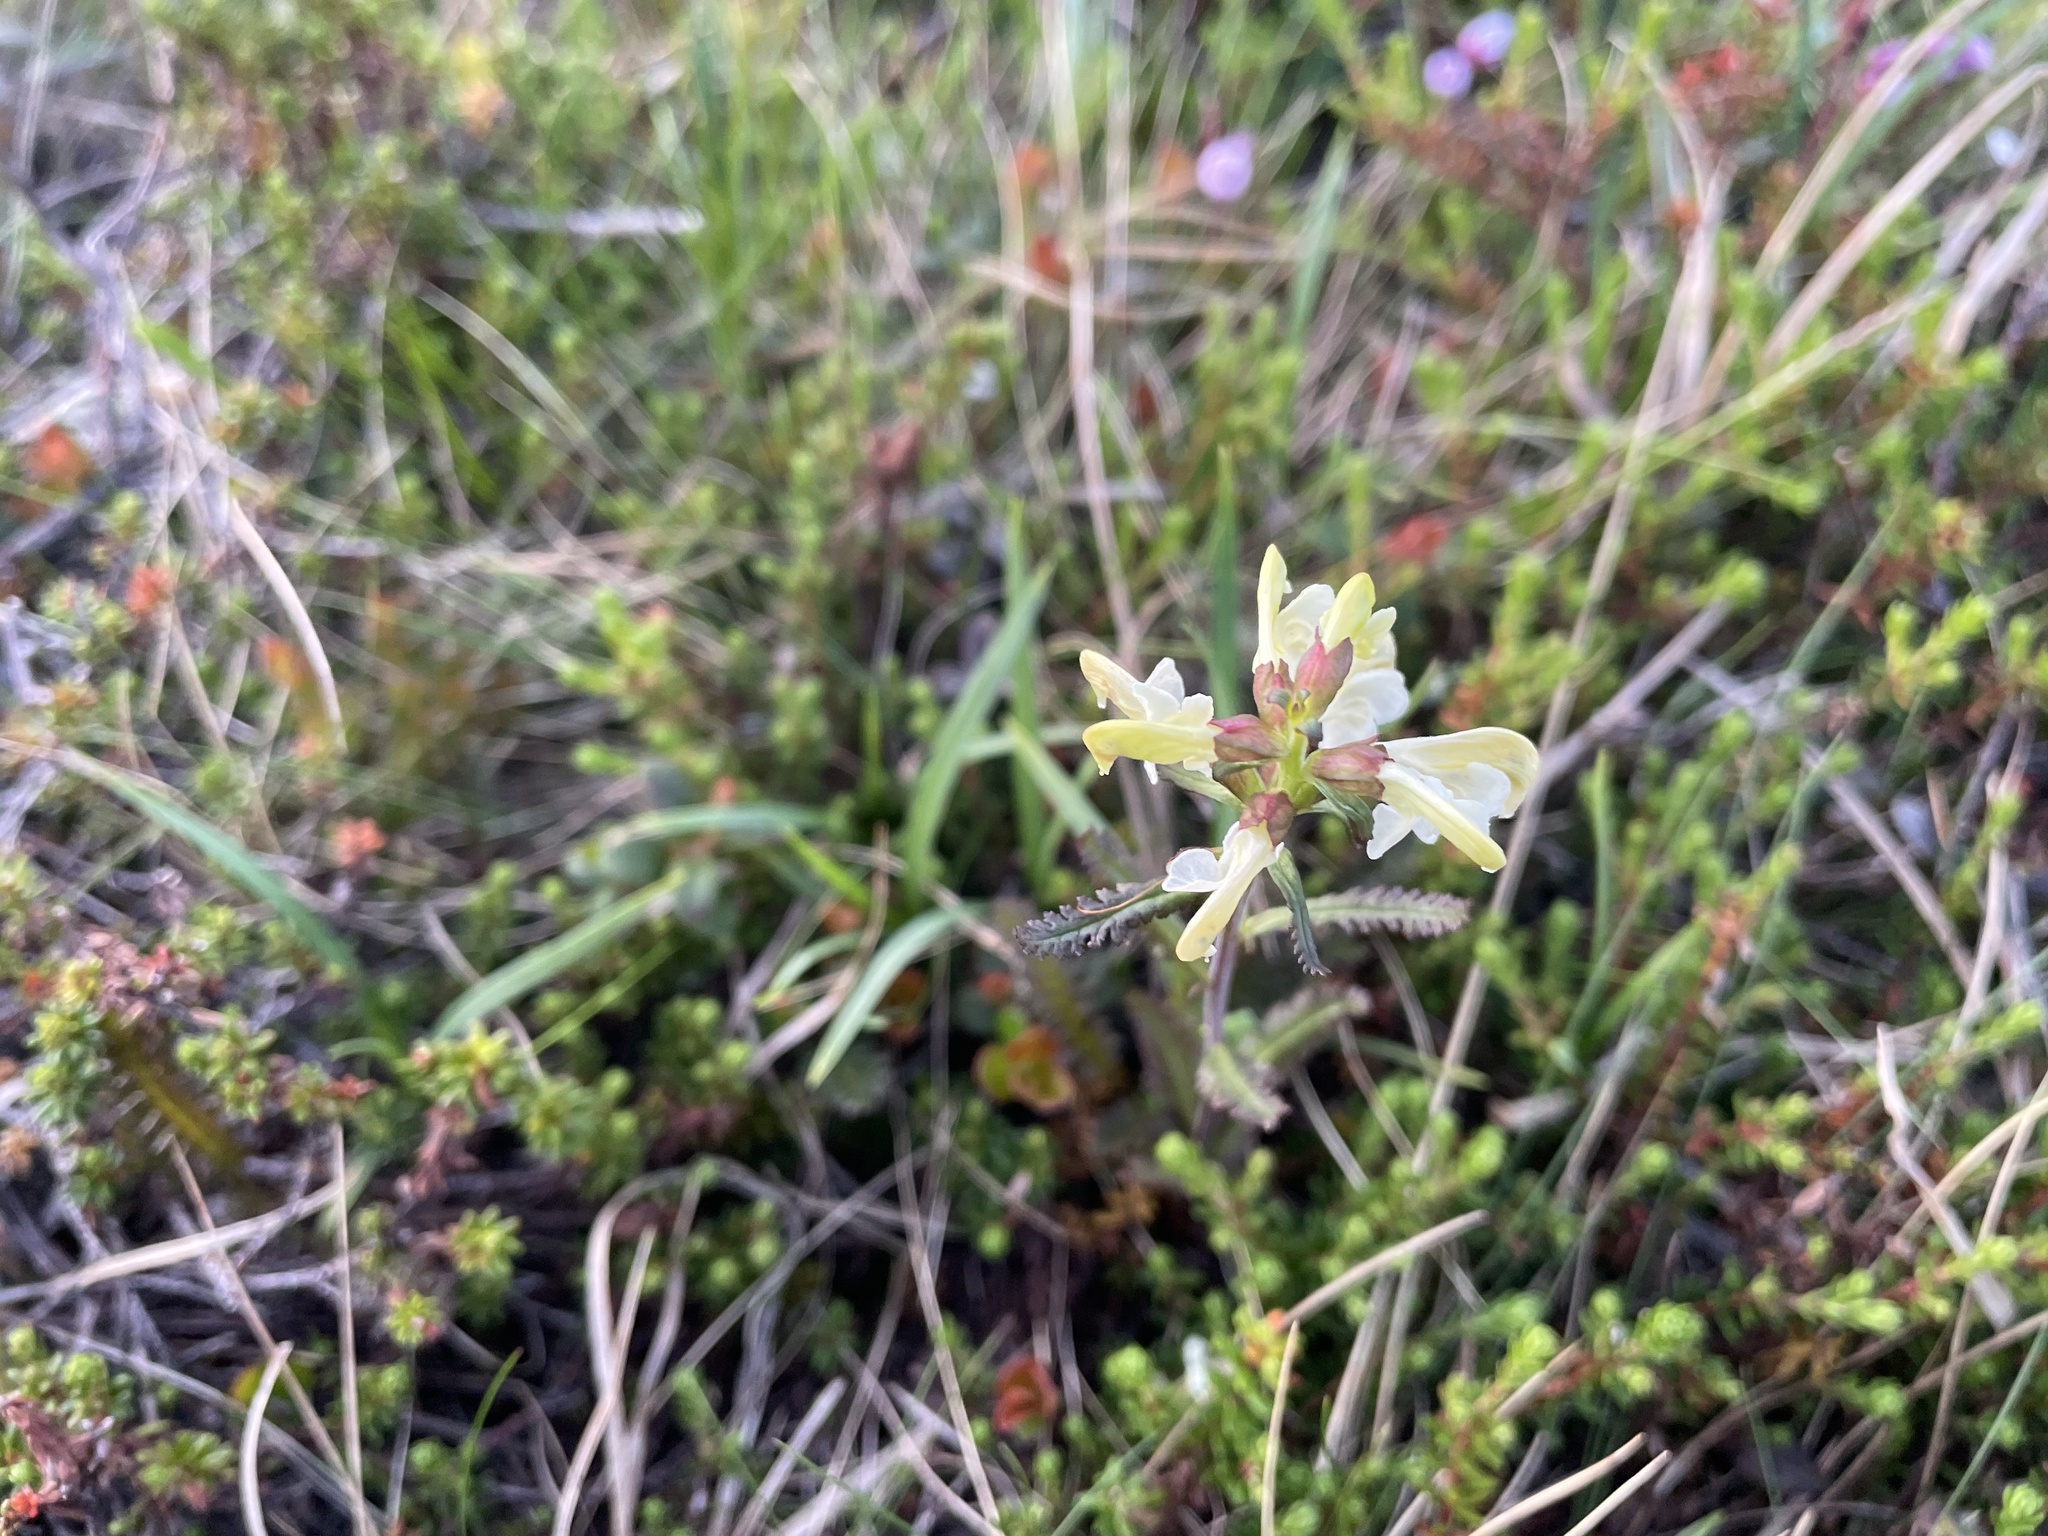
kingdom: Plantae
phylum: Tracheophyta
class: Magnoliopsida
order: Lamiales
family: Orobanchaceae
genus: Pedicularis
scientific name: Pedicularis lapponica
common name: Lapland lousewort
